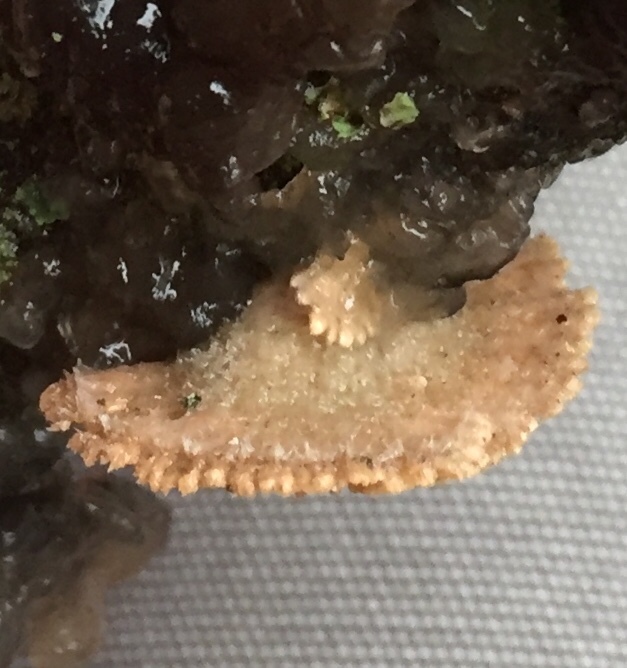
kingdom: Fungi
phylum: Basidiomycota
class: Agaricomycetes
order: Agaricales
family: Schizophyllaceae
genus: Schizophyllum
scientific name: Schizophyllum commune
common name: Common porecrust
